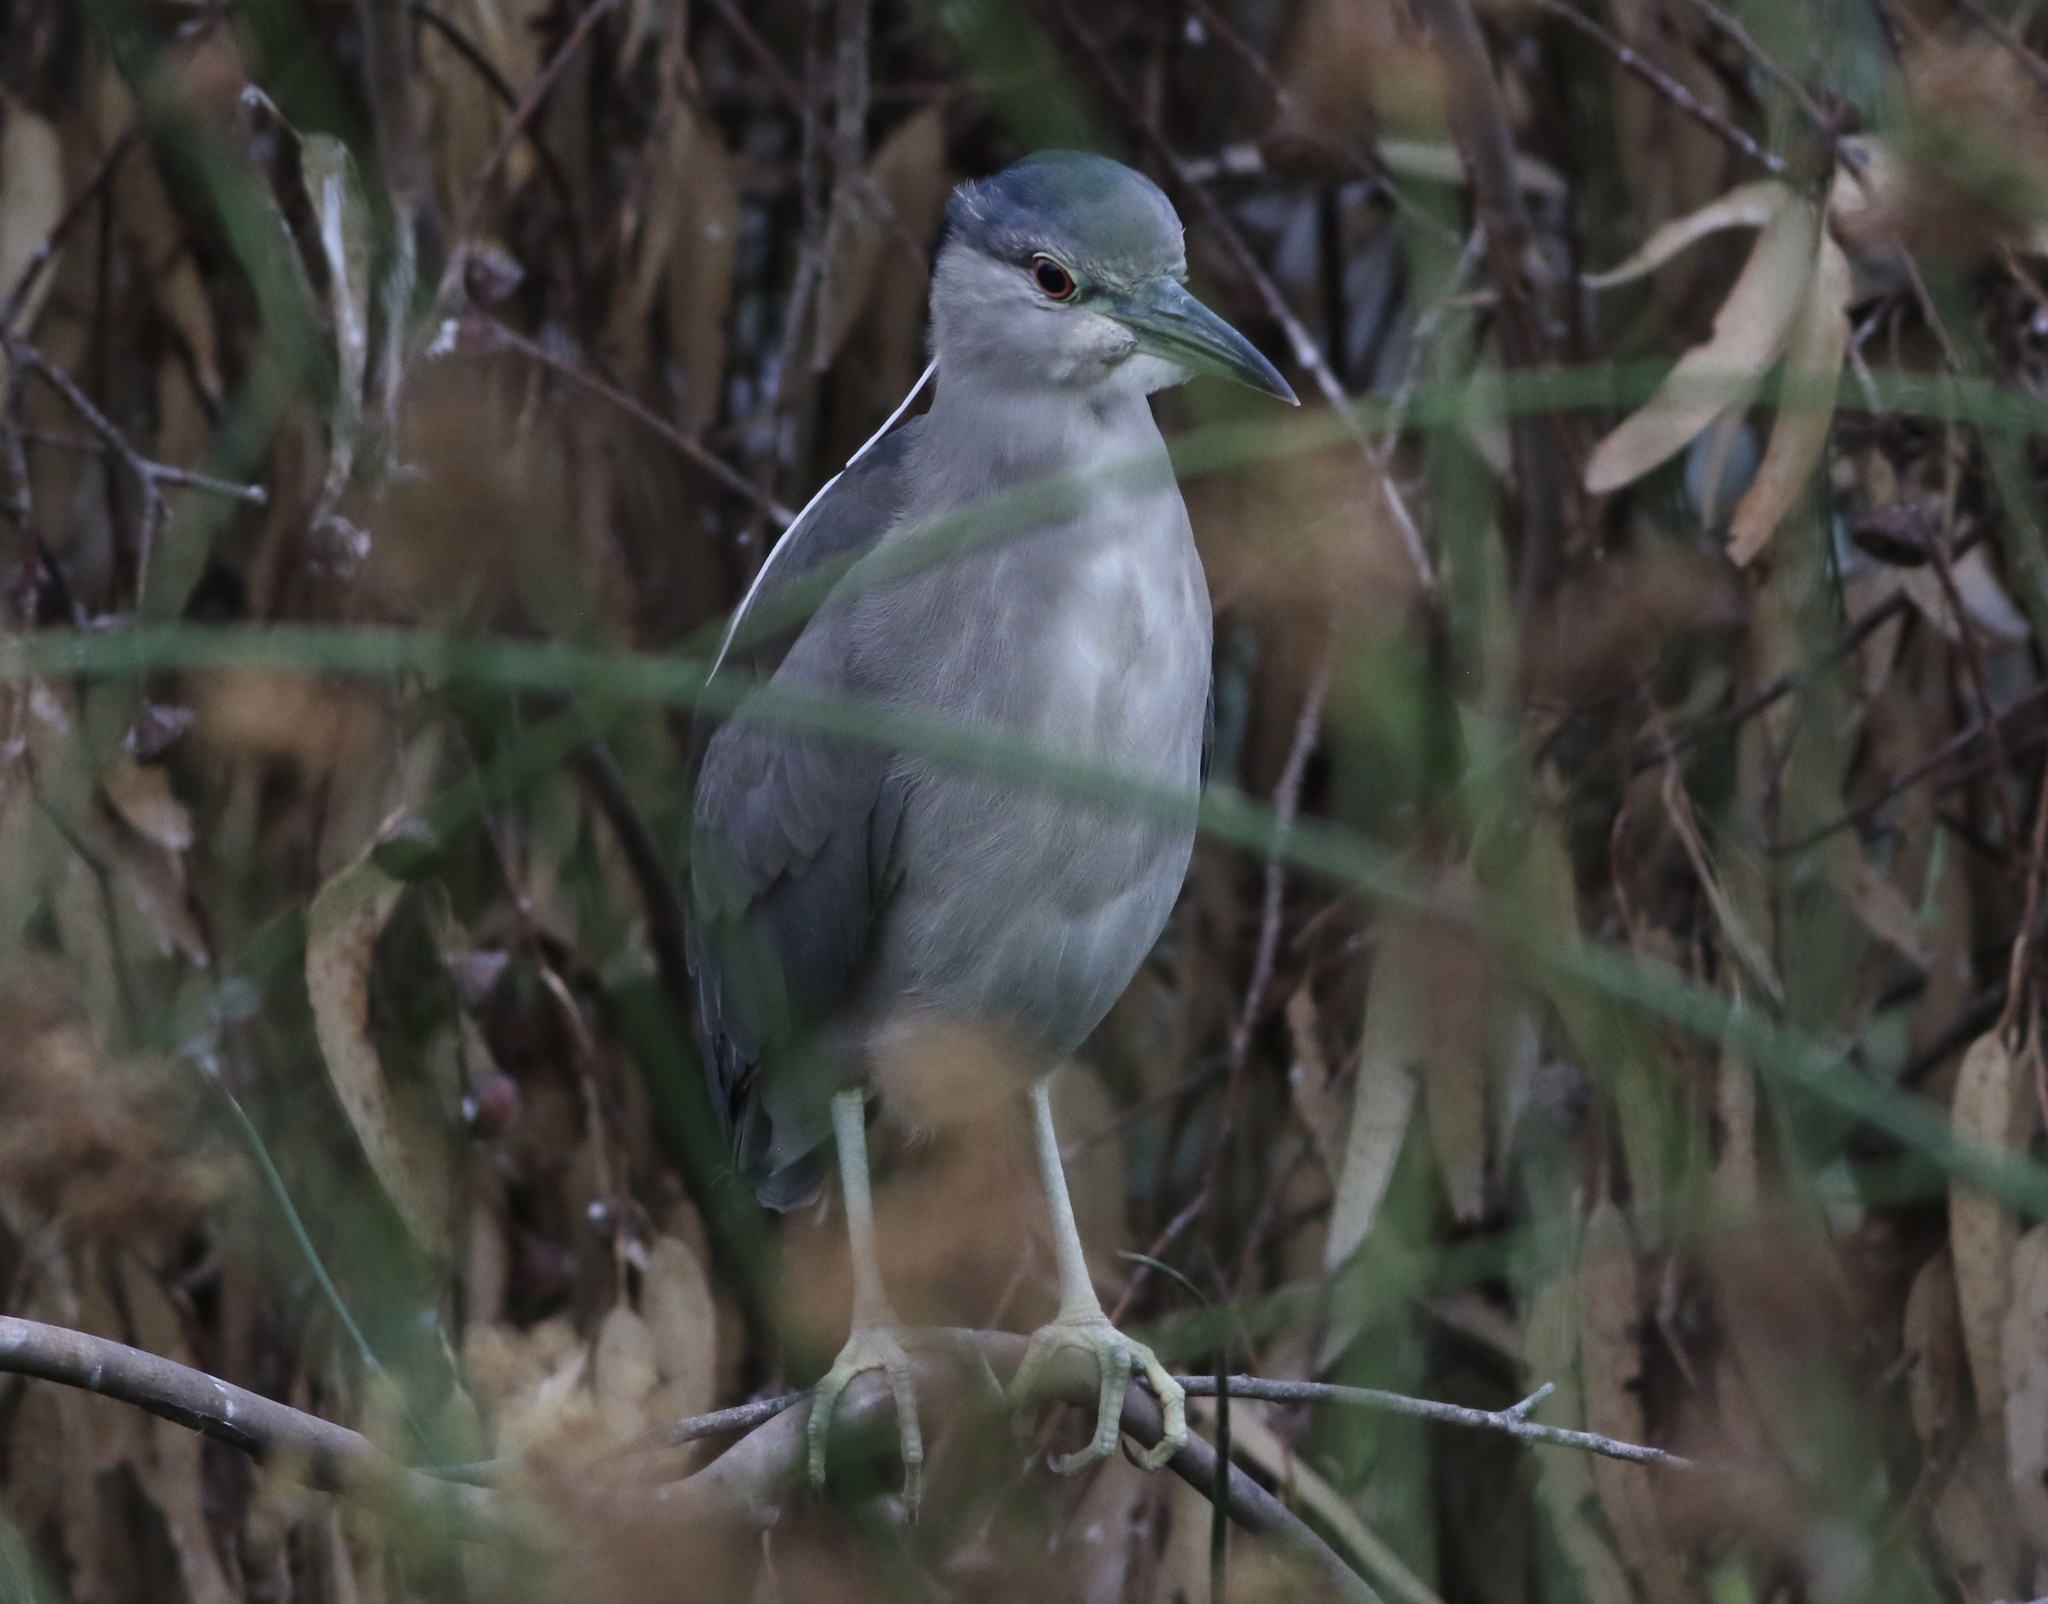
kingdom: Animalia
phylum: Chordata
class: Aves
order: Pelecaniformes
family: Ardeidae
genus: Nycticorax
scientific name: Nycticorax nycticorax
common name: Black-crowned night heron
